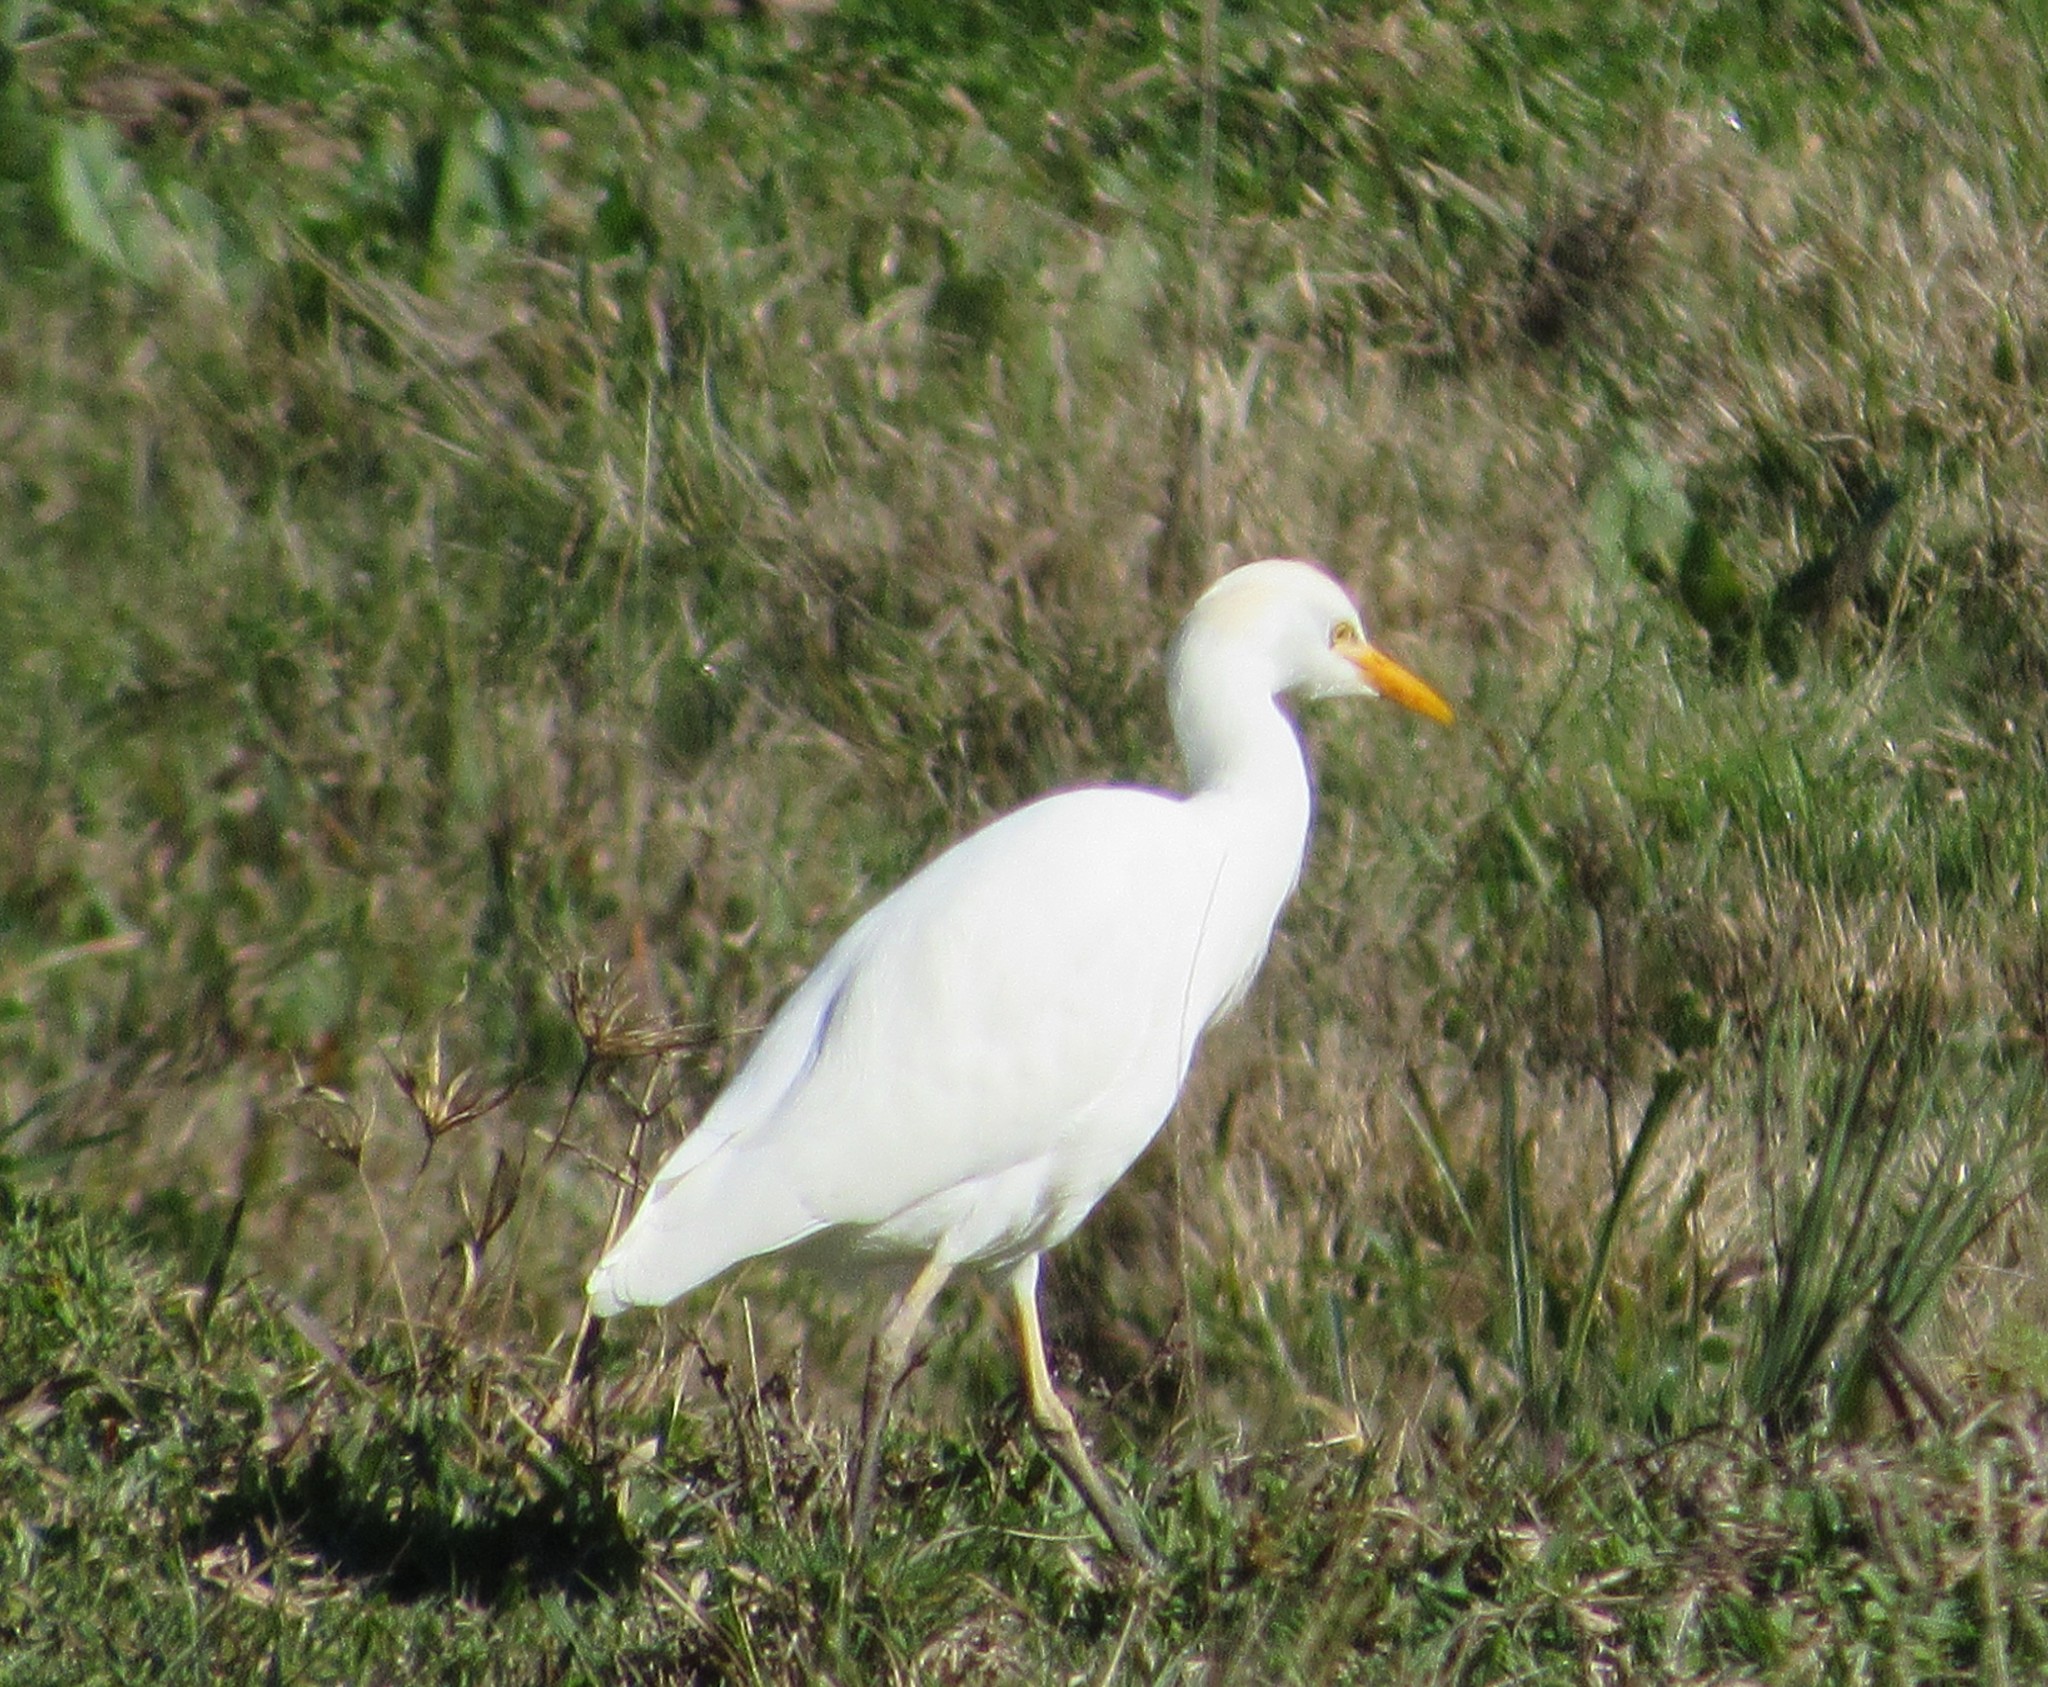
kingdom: Animalia
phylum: Chordata
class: Aves
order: Pelecaniformes
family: Ardeidae
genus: Bubulcus
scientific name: Bubulcus ibis
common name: Cattle egret
